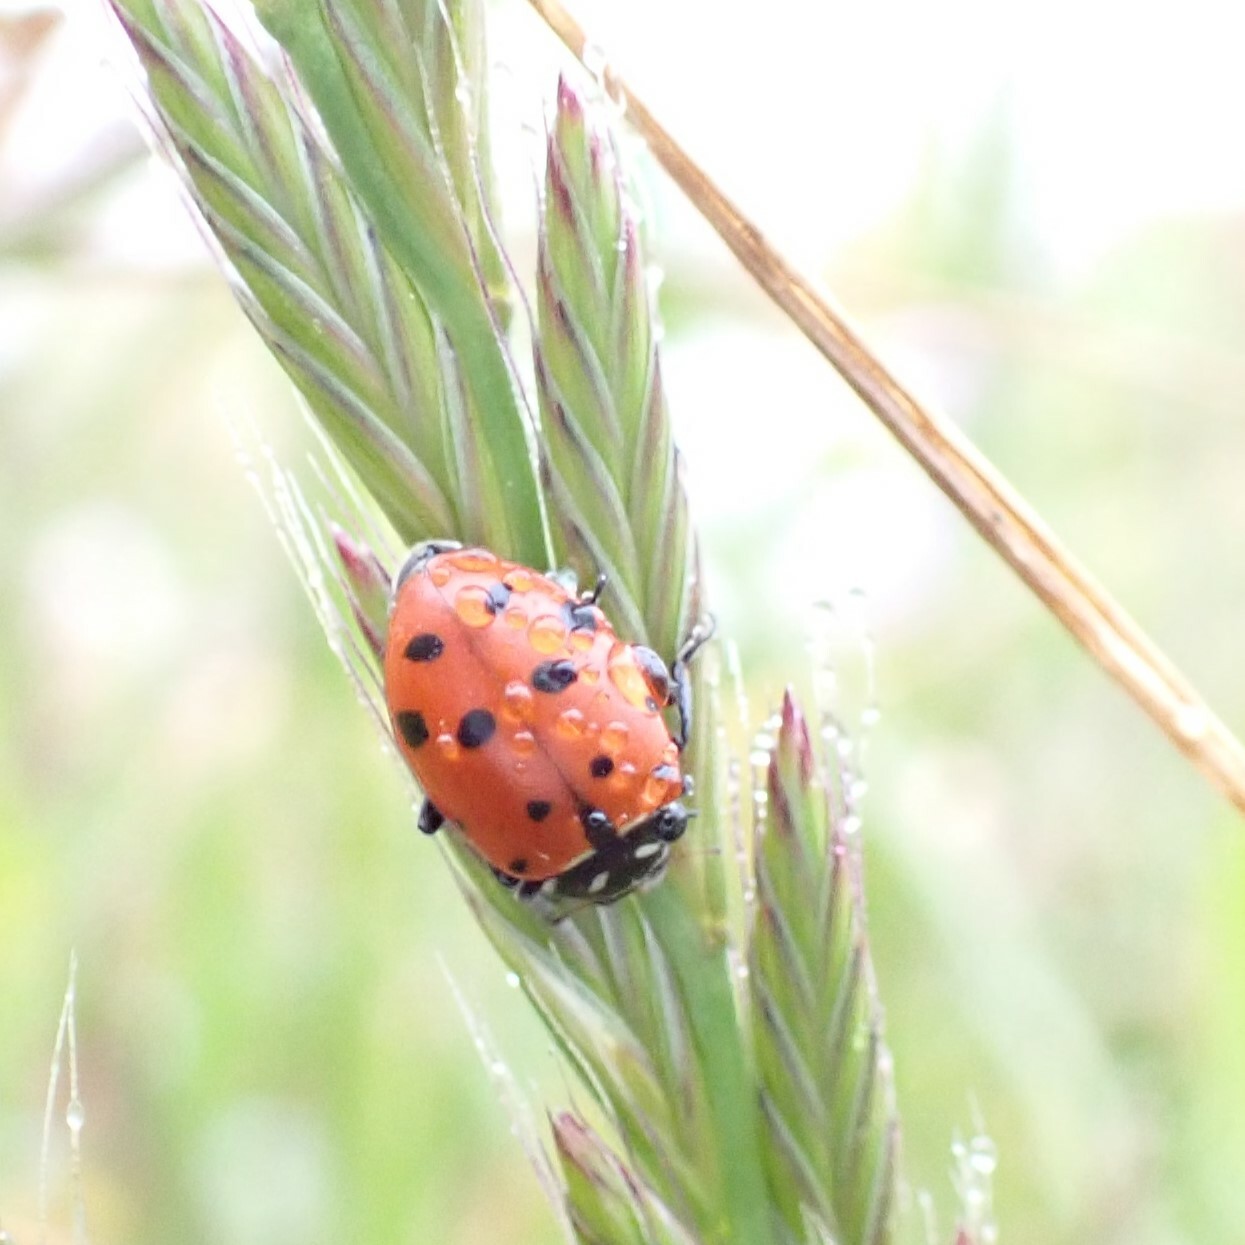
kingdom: Animalia
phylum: Arthropoda
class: Insecta
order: Coleoptera
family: Coccinellidae
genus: Hippodamia
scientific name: Hippodamia convergens
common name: Convergent lady beetle
